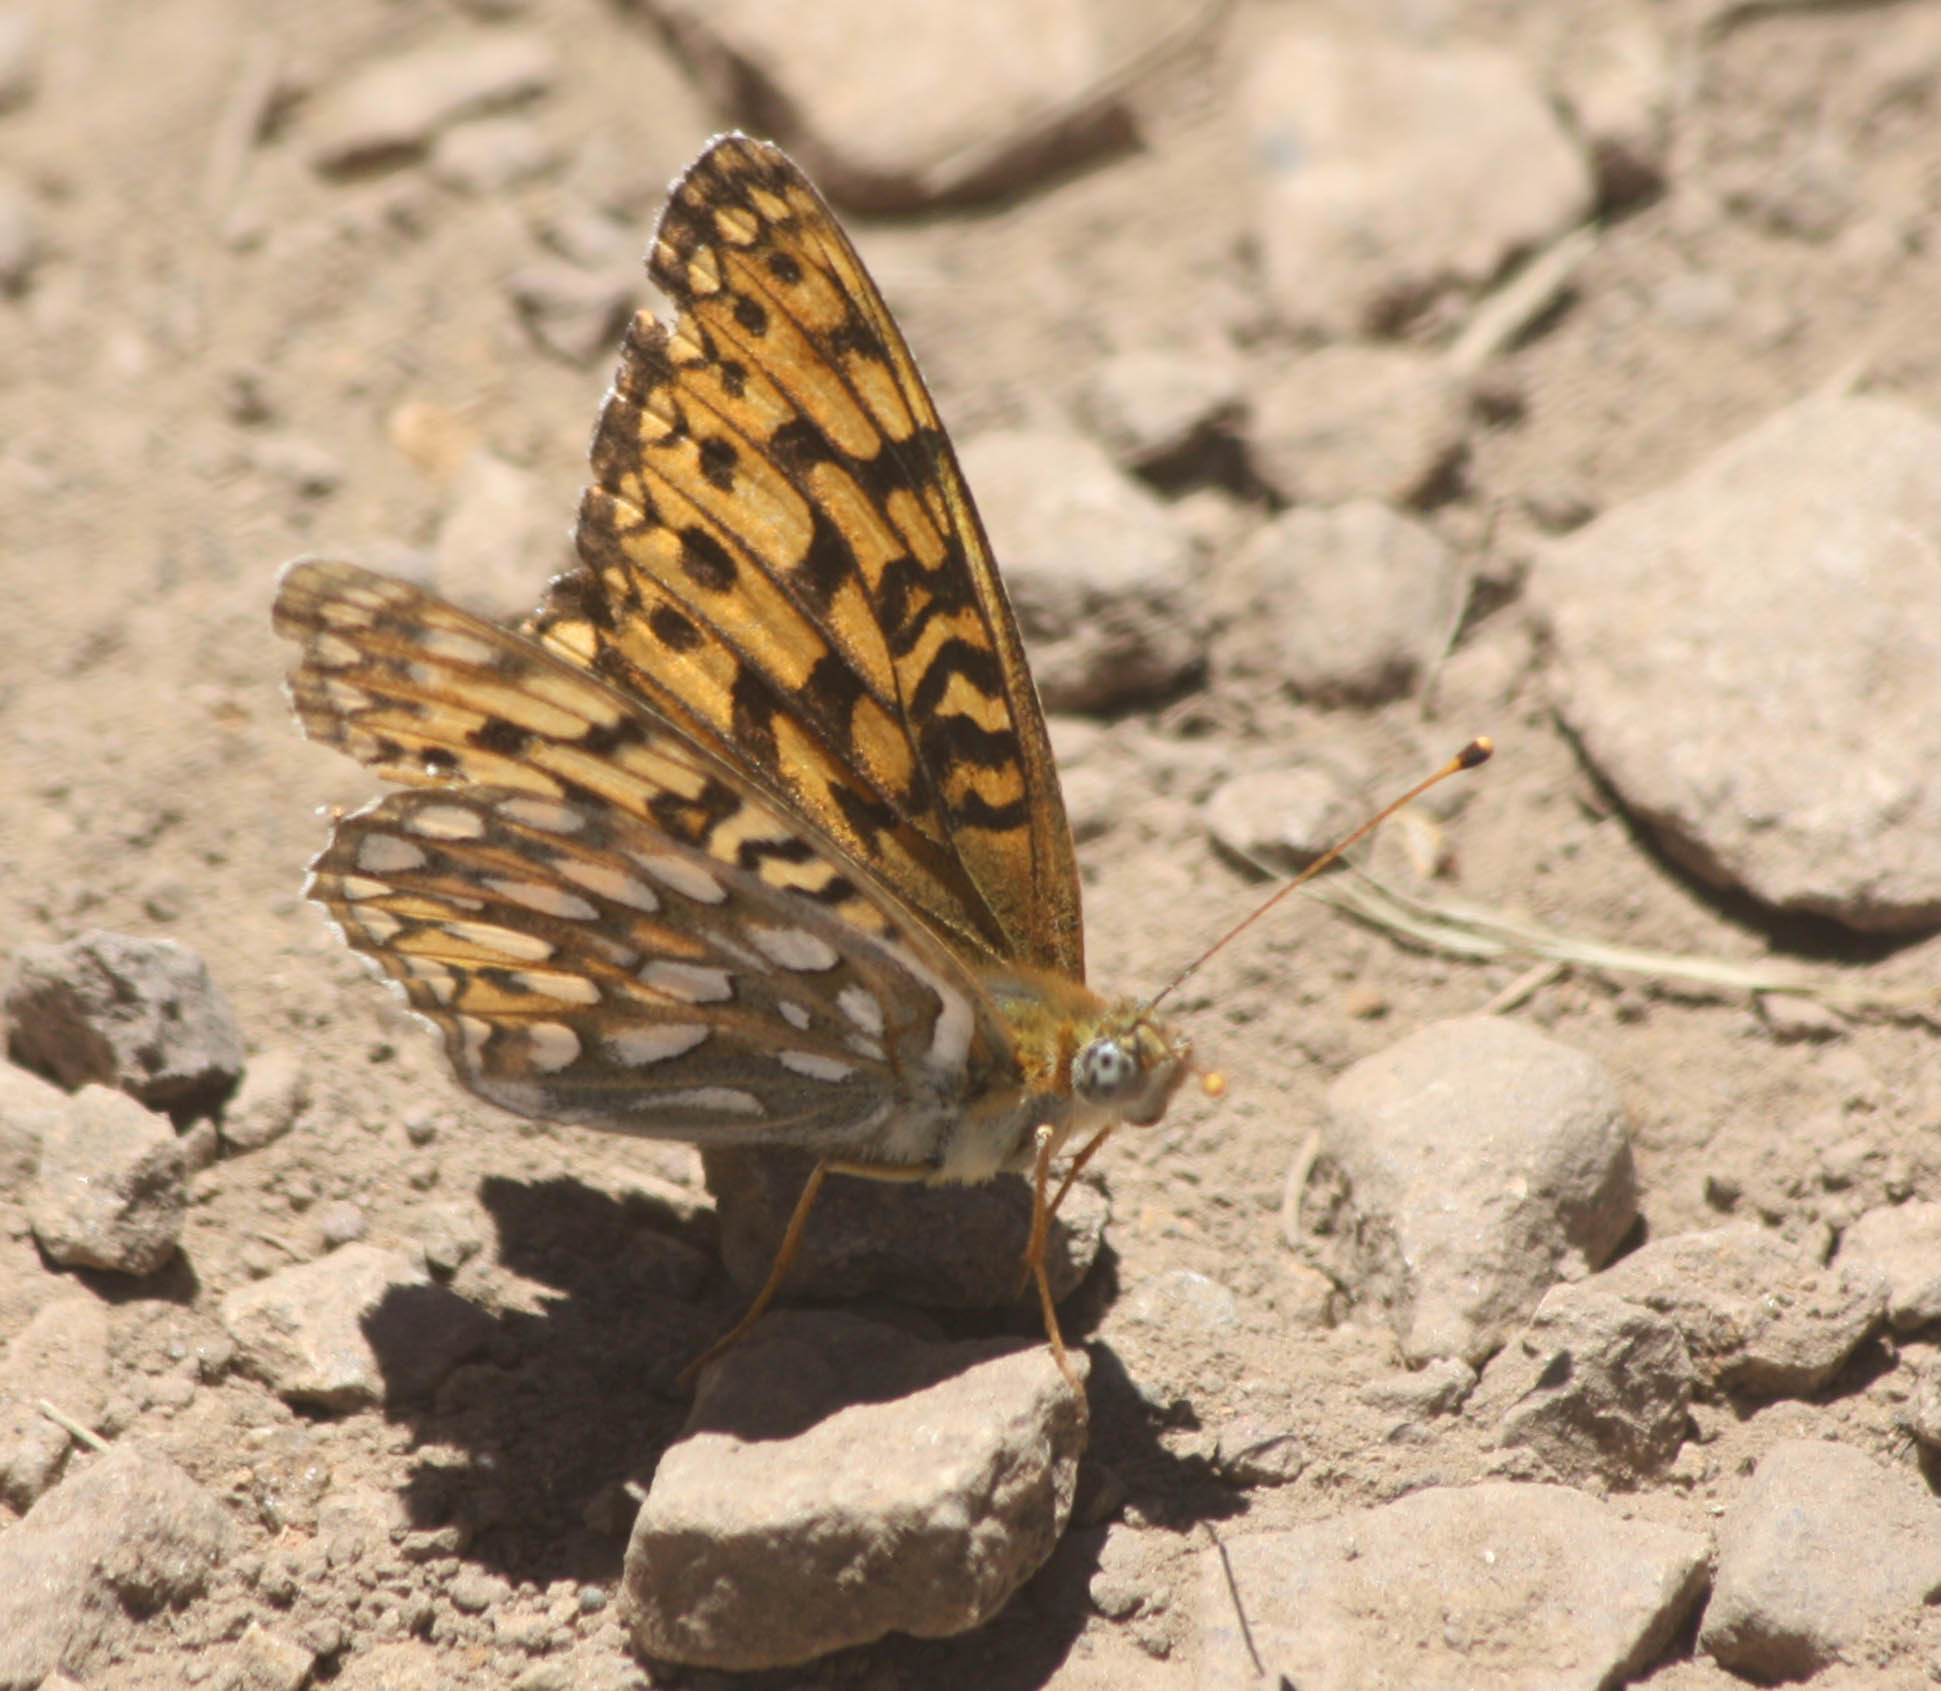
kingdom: Animalia
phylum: Arthropoda
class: Insecta
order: Lepidoptera
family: Nymphalidae
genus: Speyeria
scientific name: Speyeria callippe
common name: Callippe fritillary
